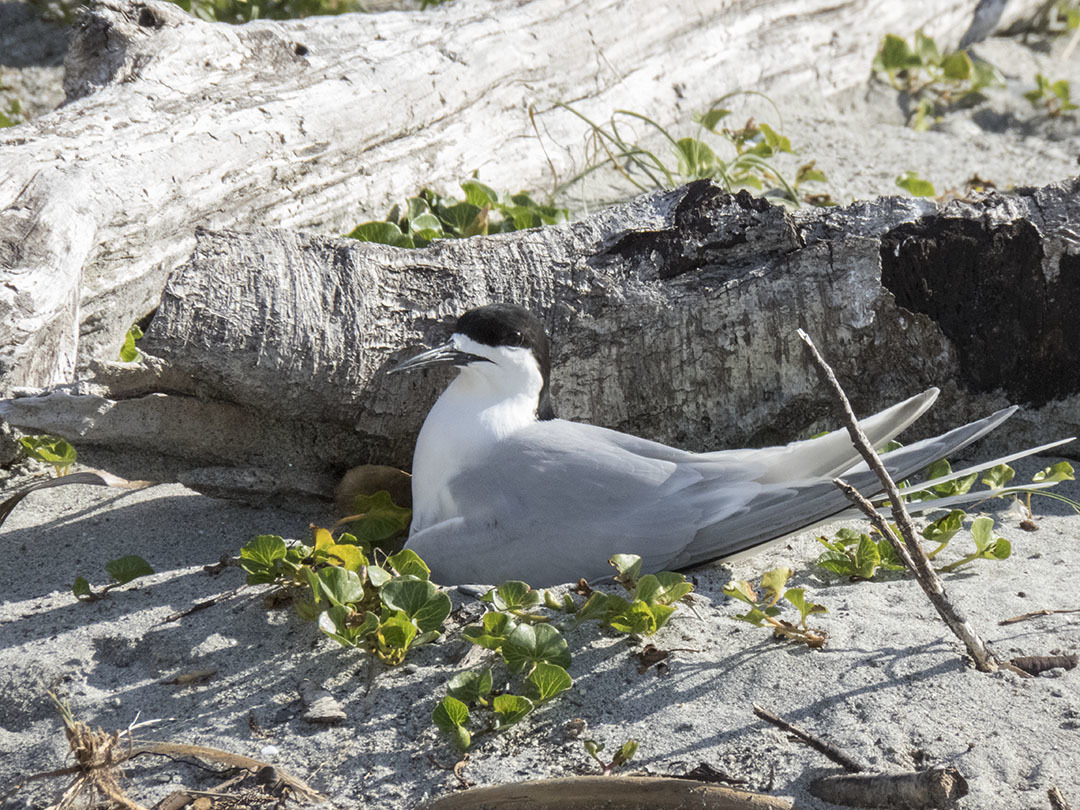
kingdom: Animalia
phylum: Chordata
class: Aves
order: Charadriiformes
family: Laridae
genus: Sterna
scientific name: Sterna striata
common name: White-fronted tern
